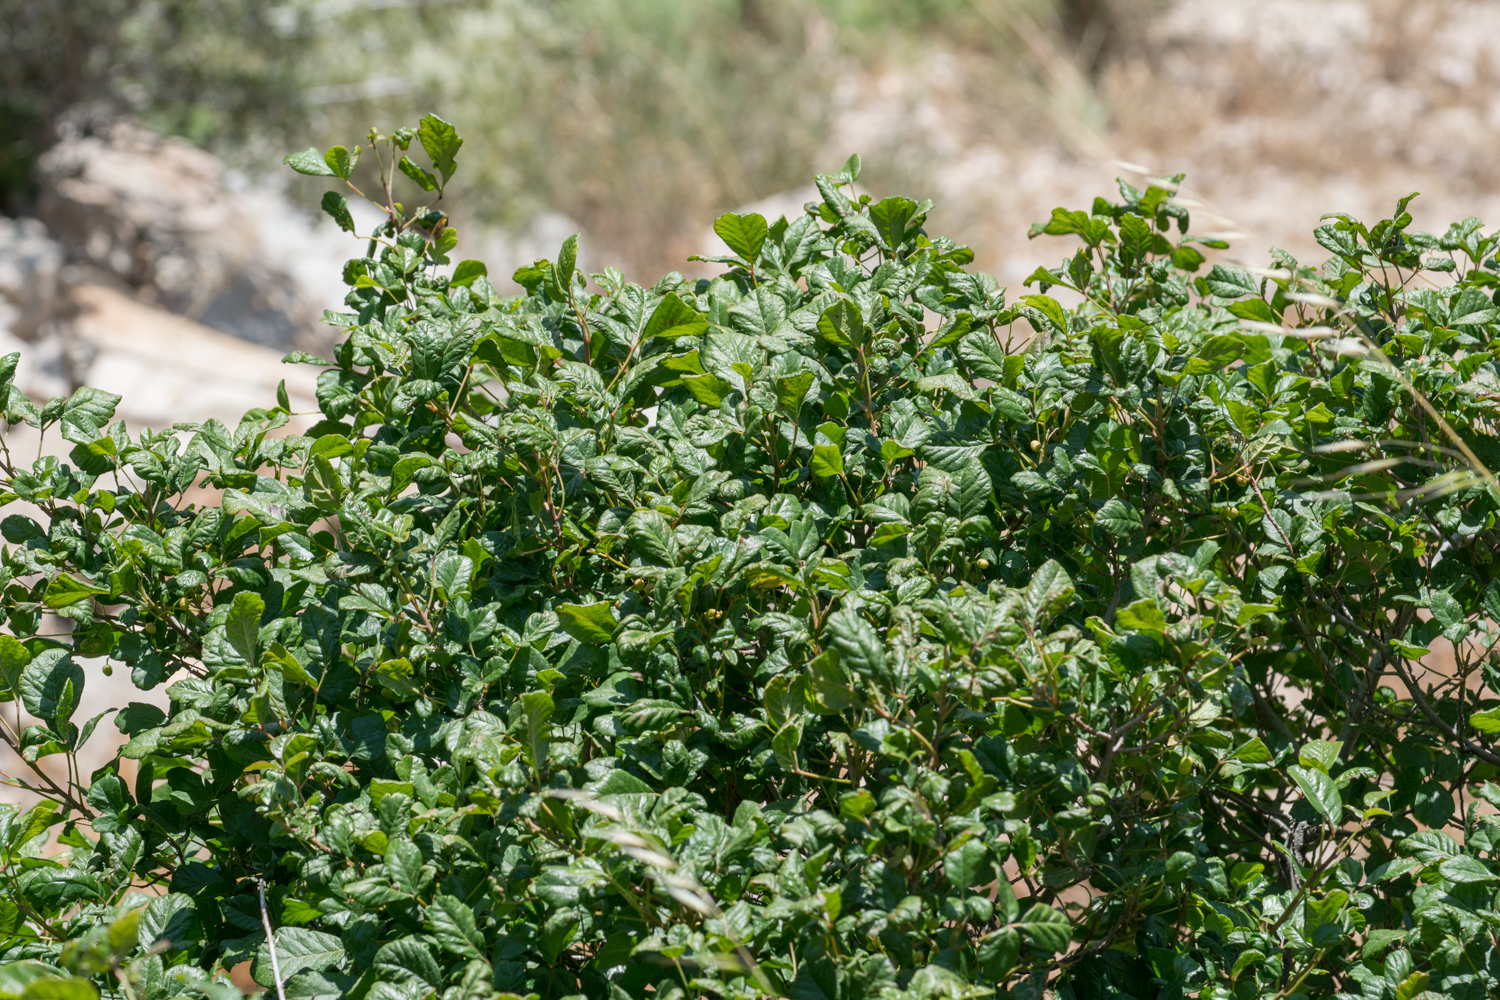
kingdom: Plantae
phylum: Tracheophyta
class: Magnoliopsida
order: Sapindales
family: Anacardiaceae
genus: Toxicodendron
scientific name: Toxicodendron diversilobum
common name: Pacific poison-oak
